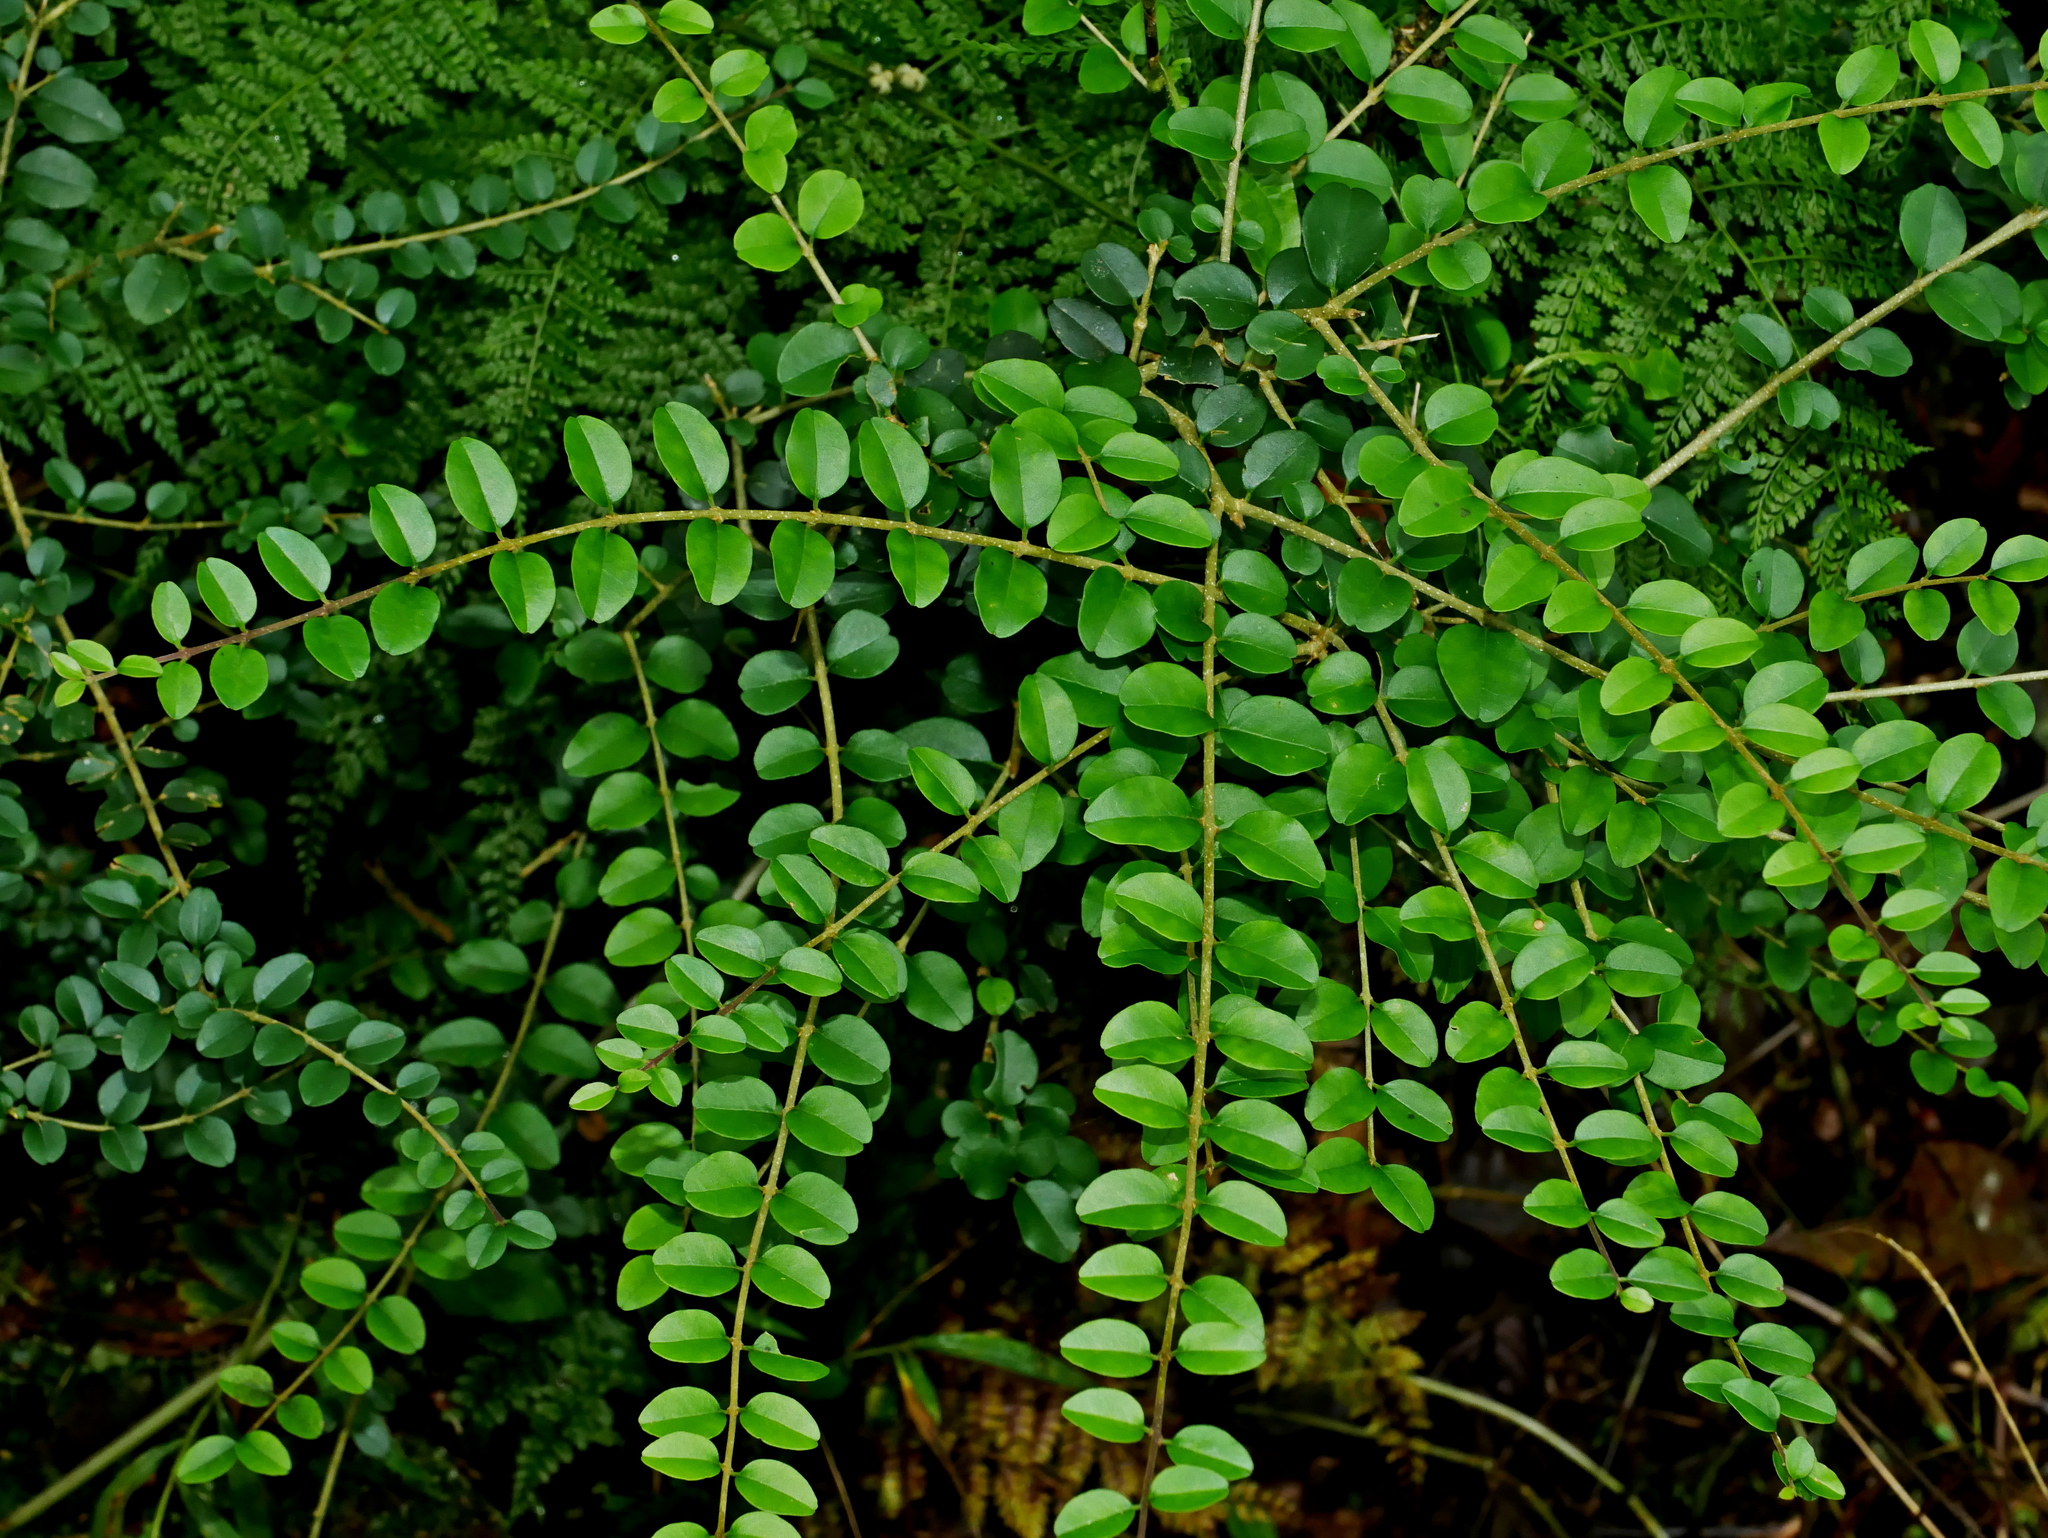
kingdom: Plantae
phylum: Tracheophyta
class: Magnoliopsida
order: Lamiales
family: Oleaceae
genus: Ligustrum
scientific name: Ligustrum sinense
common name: Chinese privet
